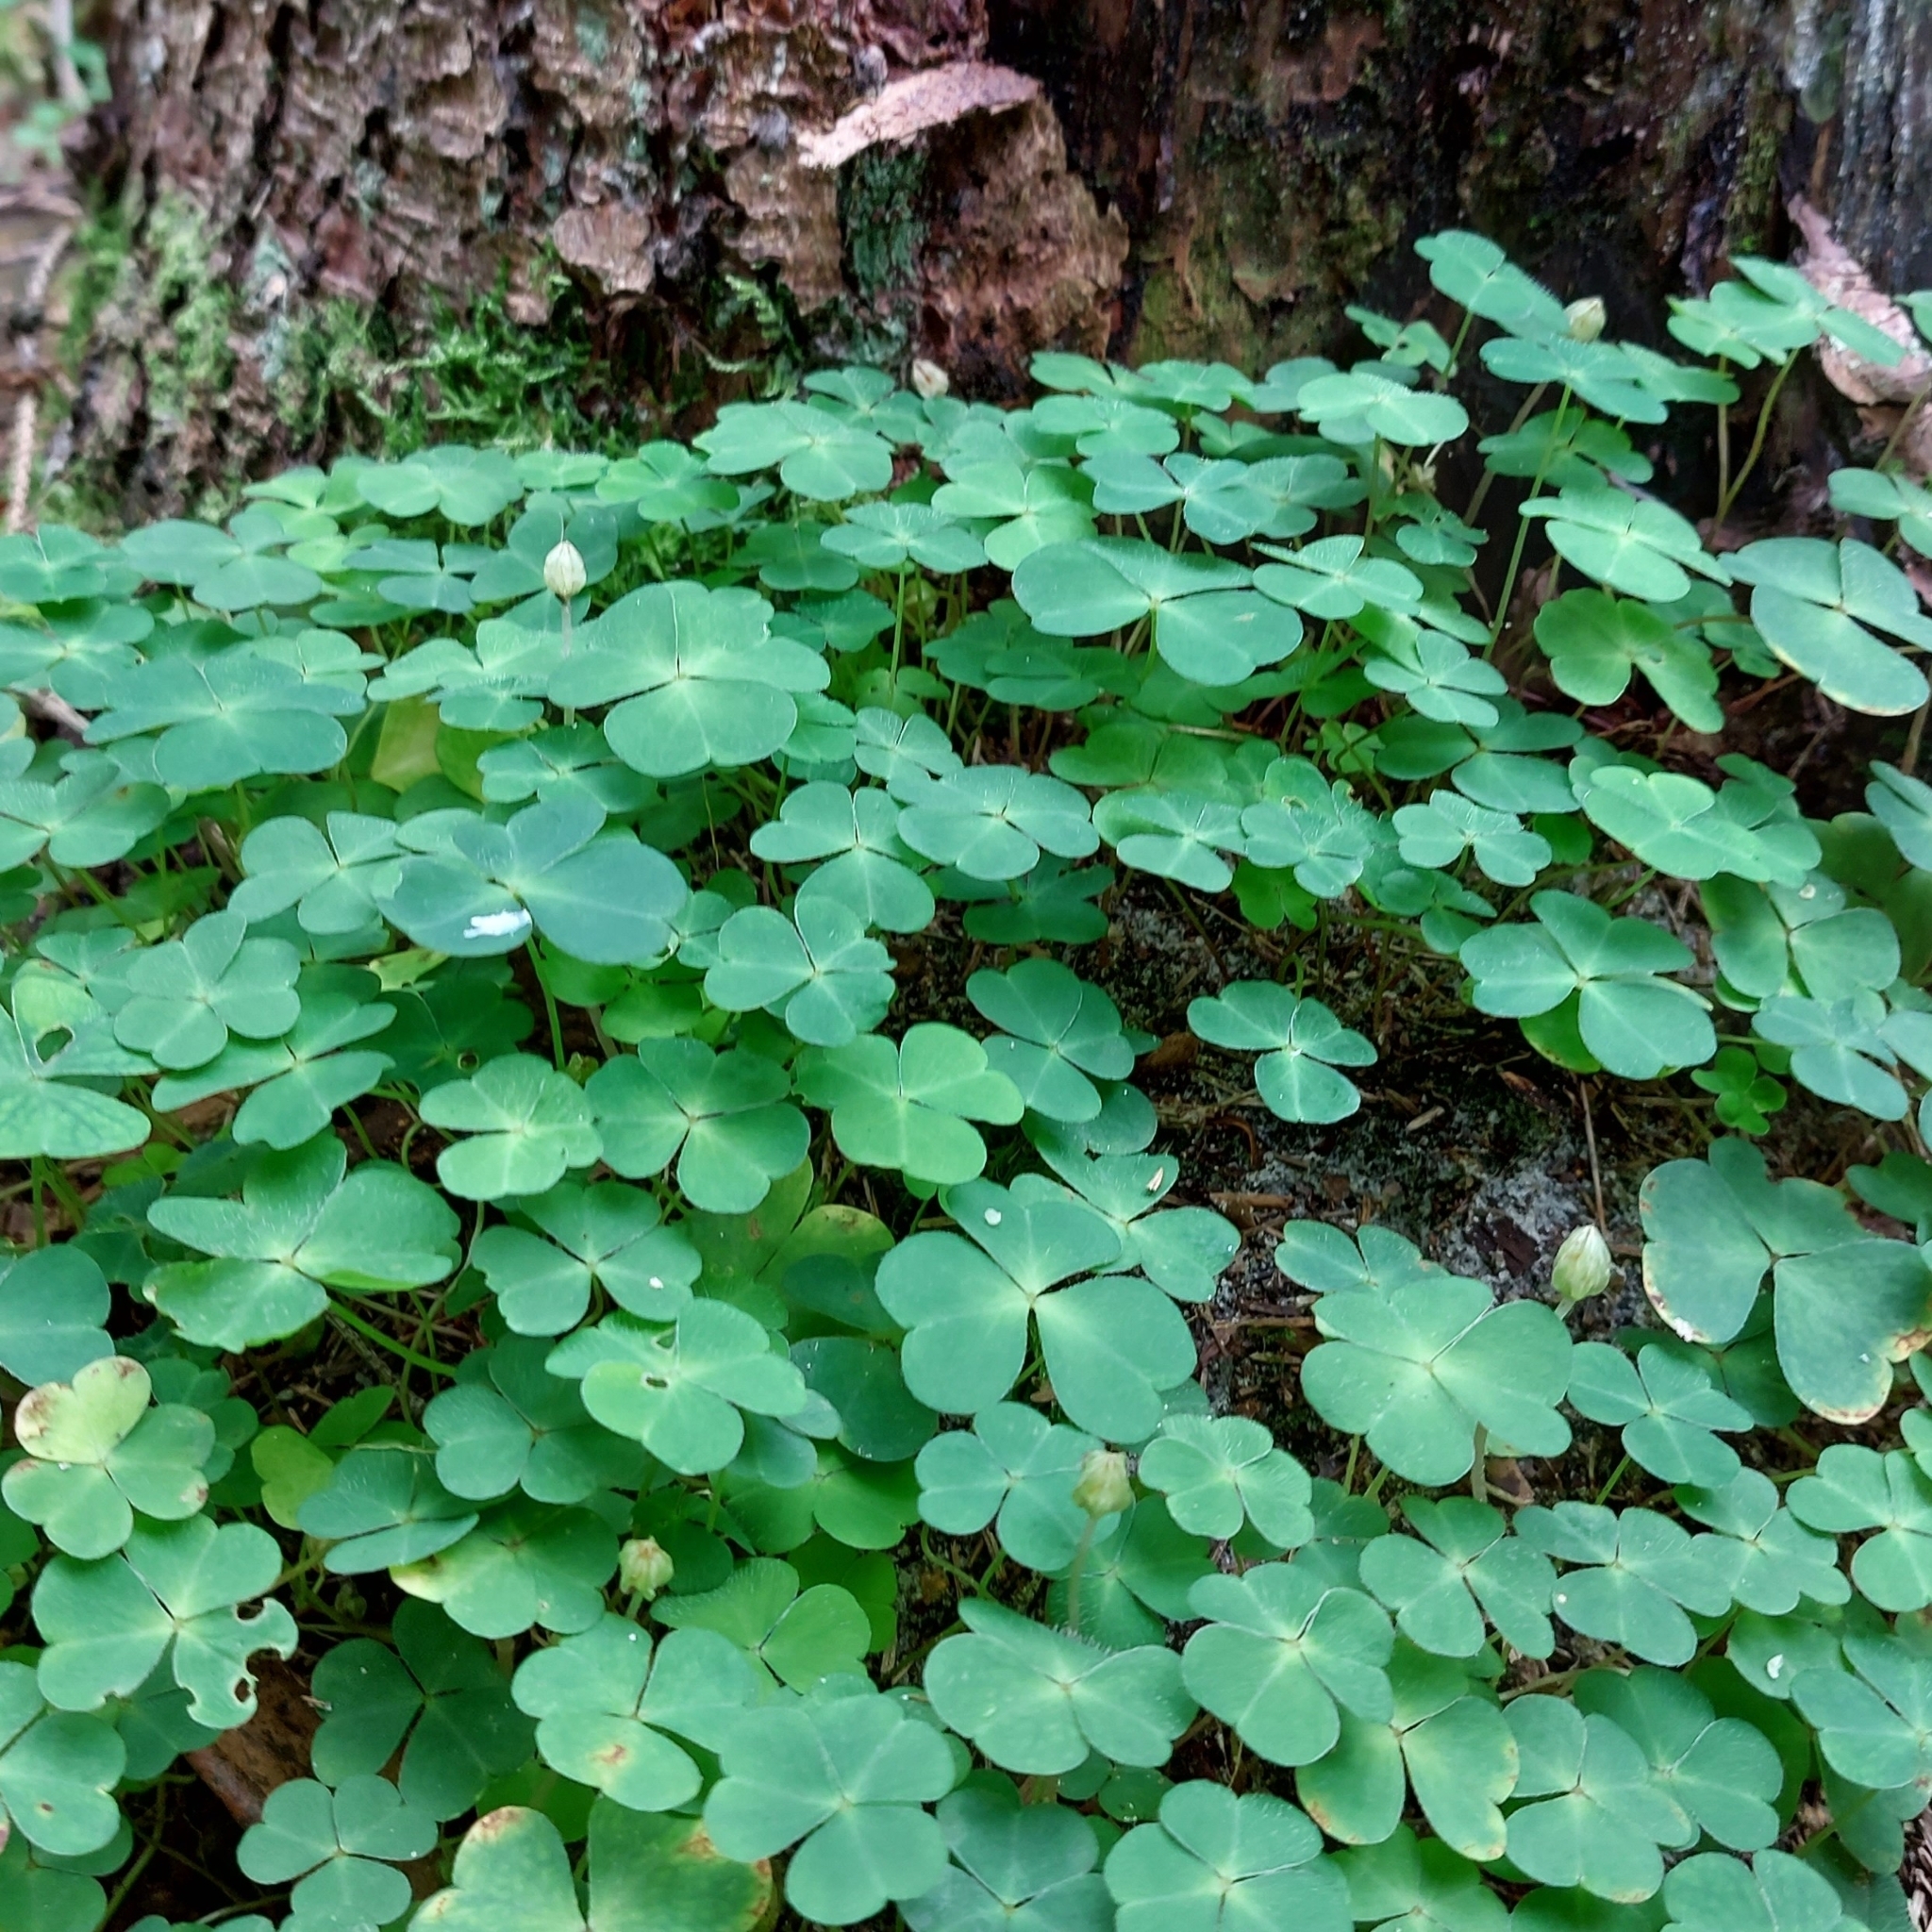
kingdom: Plantae
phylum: Tracheophyta
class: Magnoliopsida
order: Oxalidales
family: Oxalidaceae
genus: Oxalis
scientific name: Oxalis acetosella
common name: Wood-sorrel
